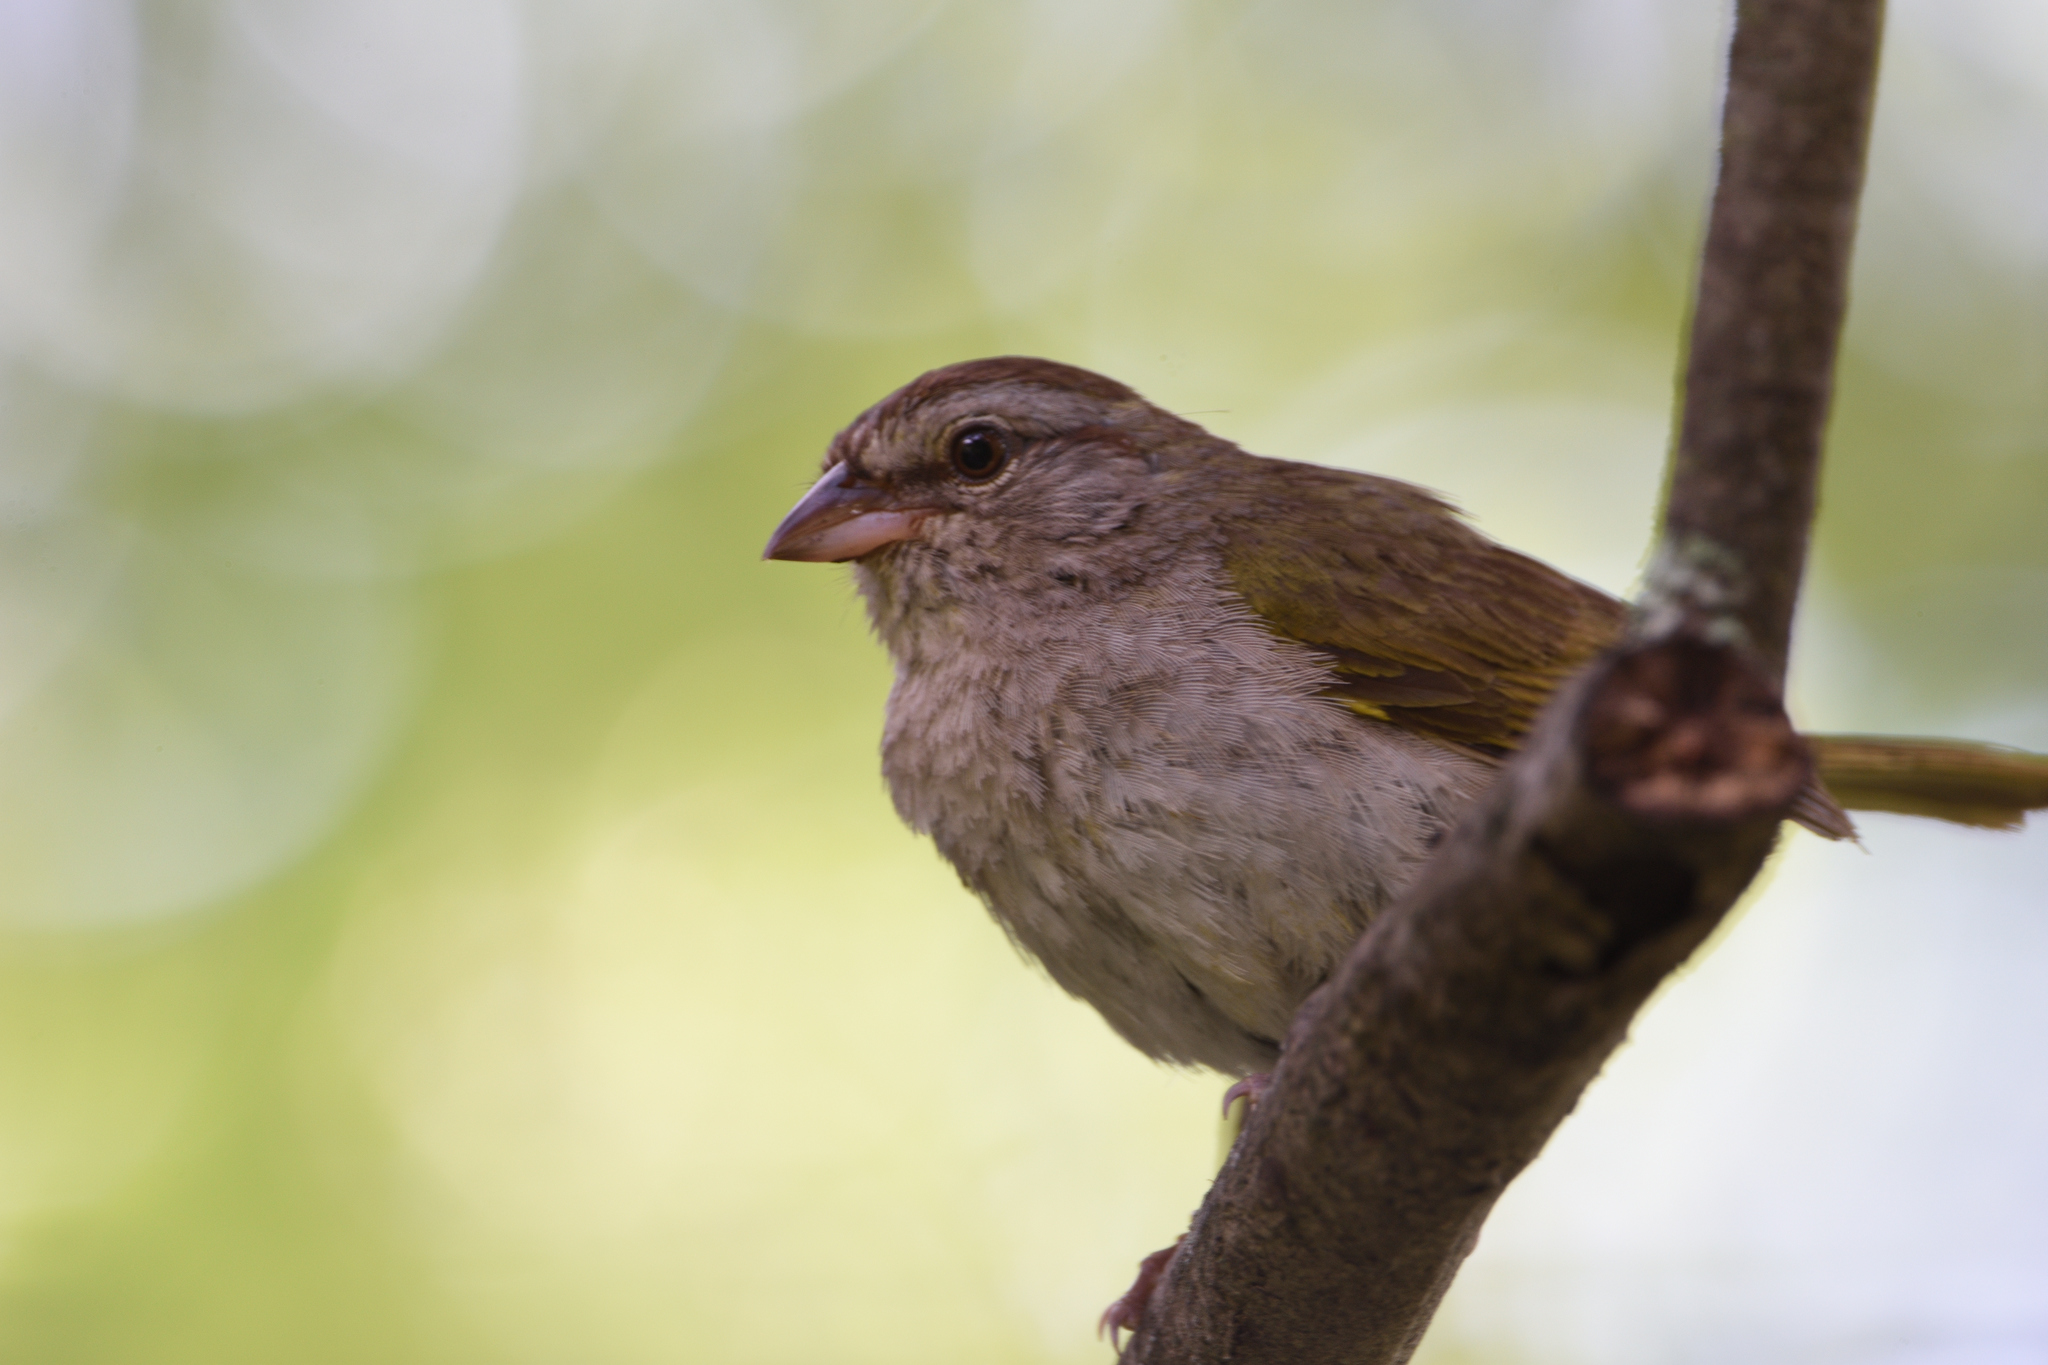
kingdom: Animalia
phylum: Chordata
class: Aves
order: Passeriformes
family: Passerellidae
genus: Arremonops
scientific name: Arremonops rufivirgatus
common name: Olive sparrow
